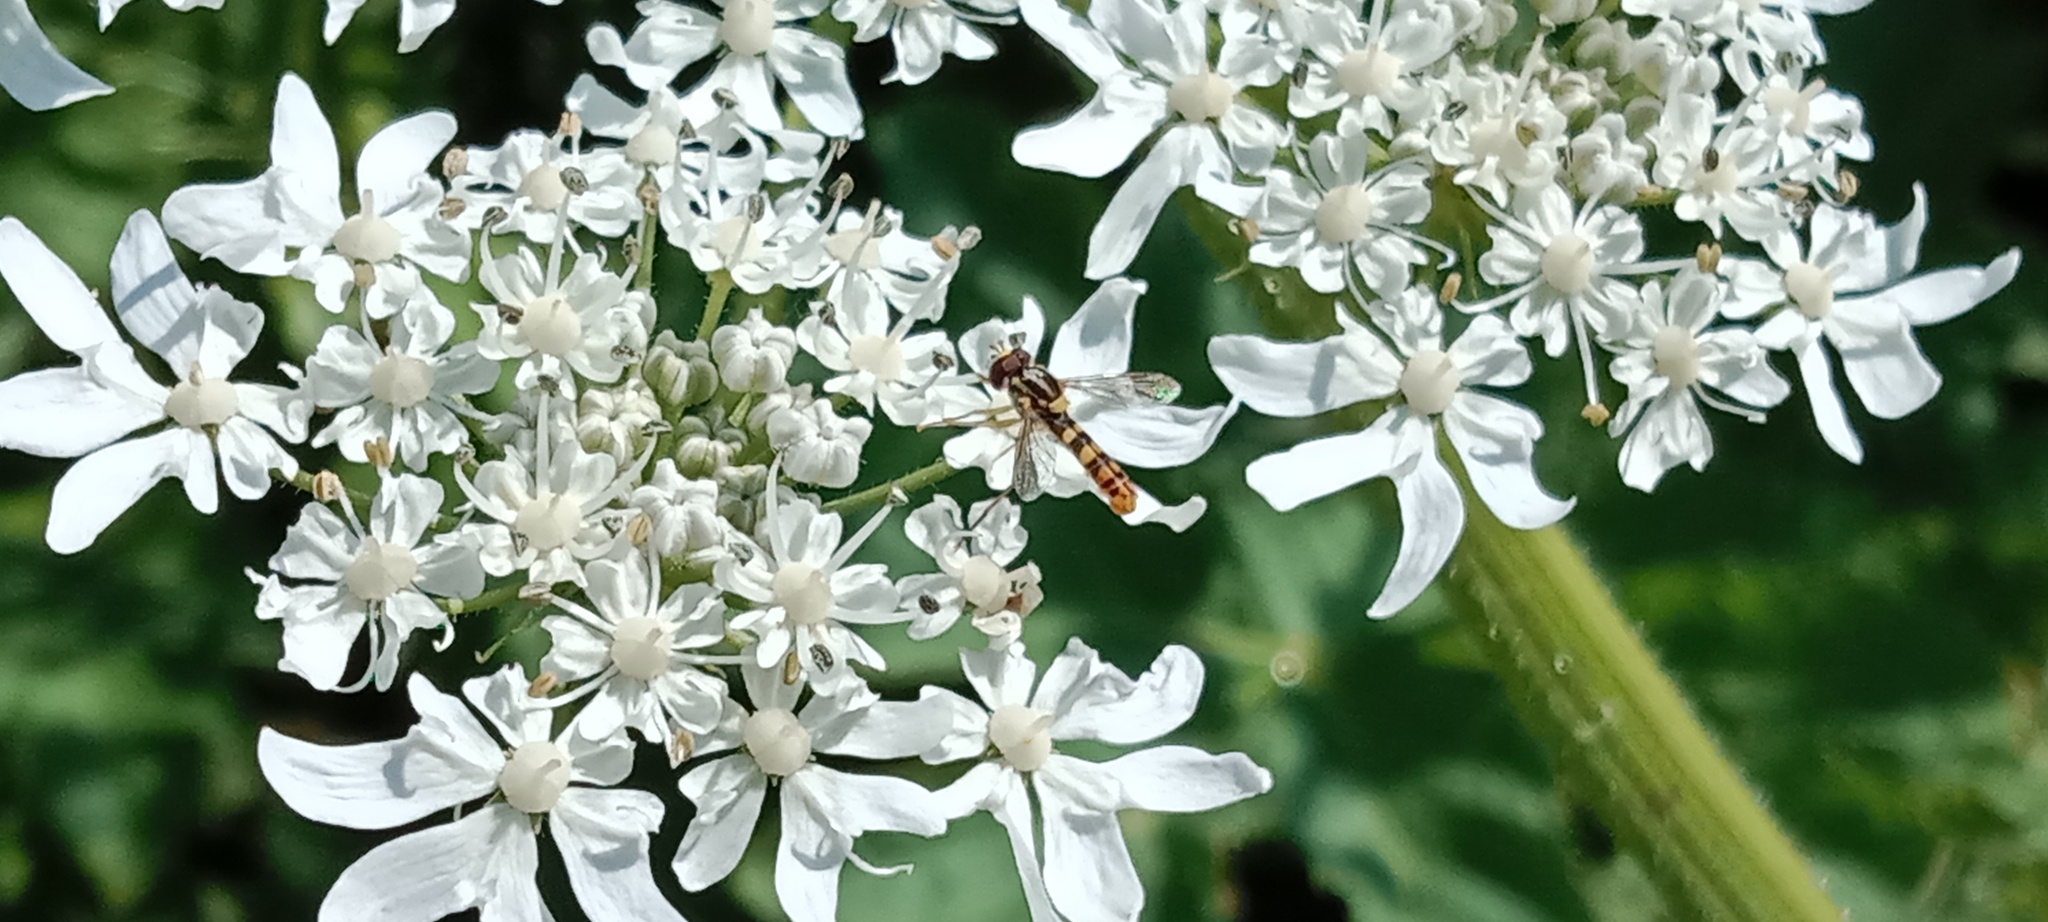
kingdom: Animalia
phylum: Arthropoda
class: Insecta
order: Diptera
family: Syrphidae
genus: Sphaerophoria
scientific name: Sphaerophoria scripta
